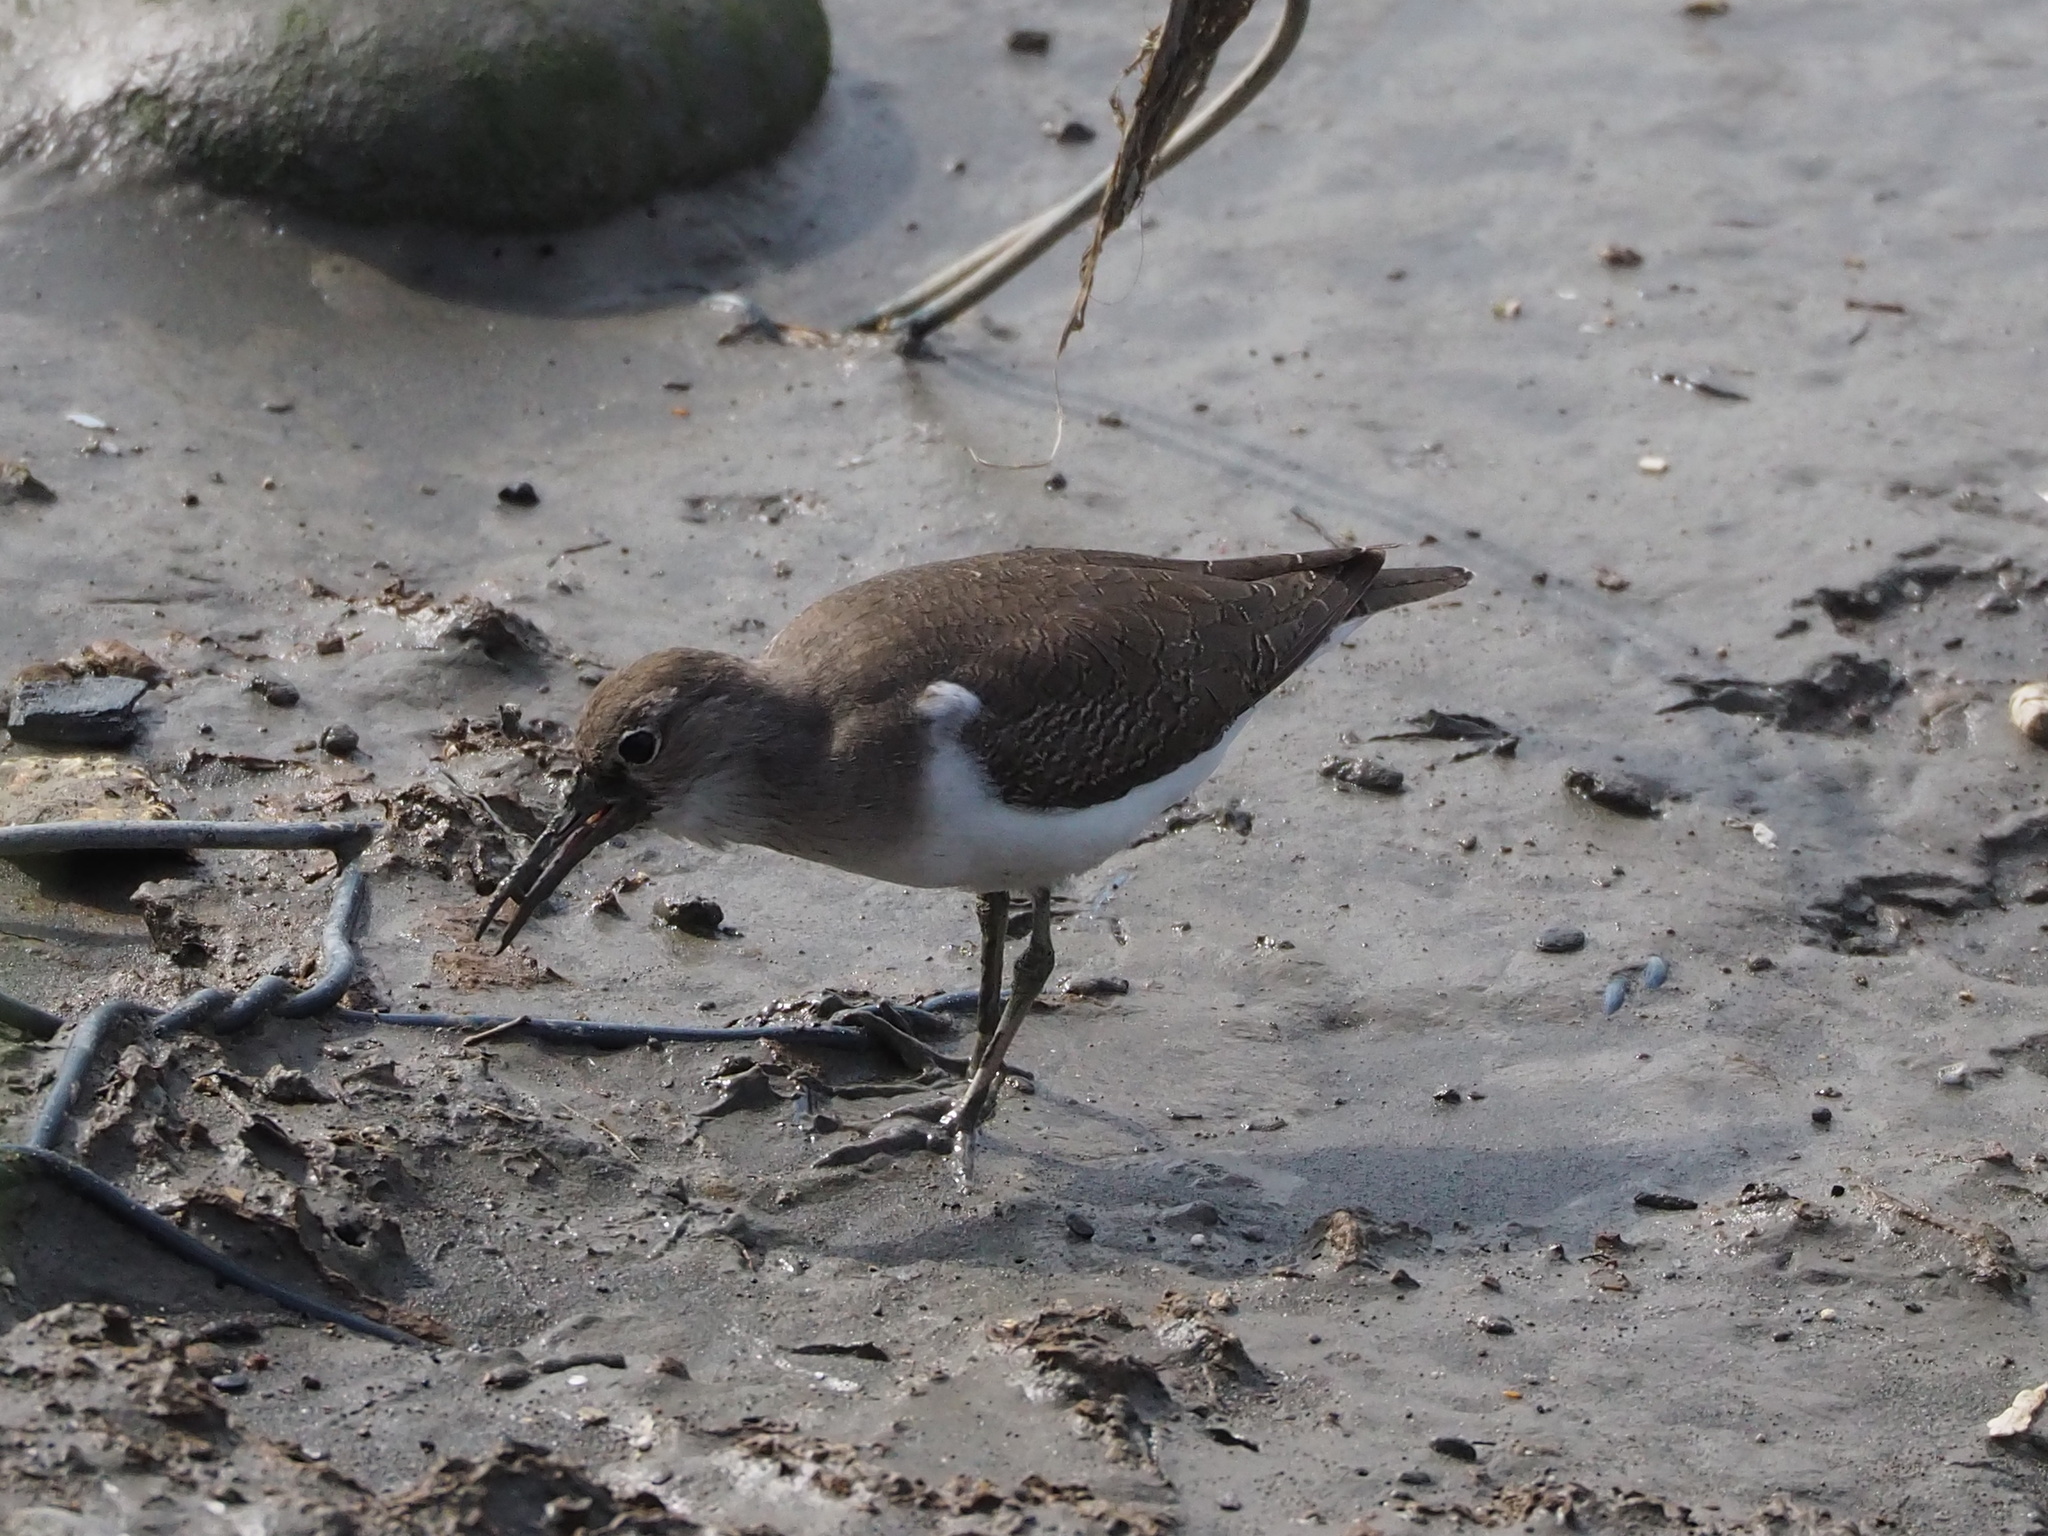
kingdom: Animalia
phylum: Chordata
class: Aves
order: Charadriiformes
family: Scolopacidae
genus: Actitis
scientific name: Actitis hypoleucos
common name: Common sandpiper
